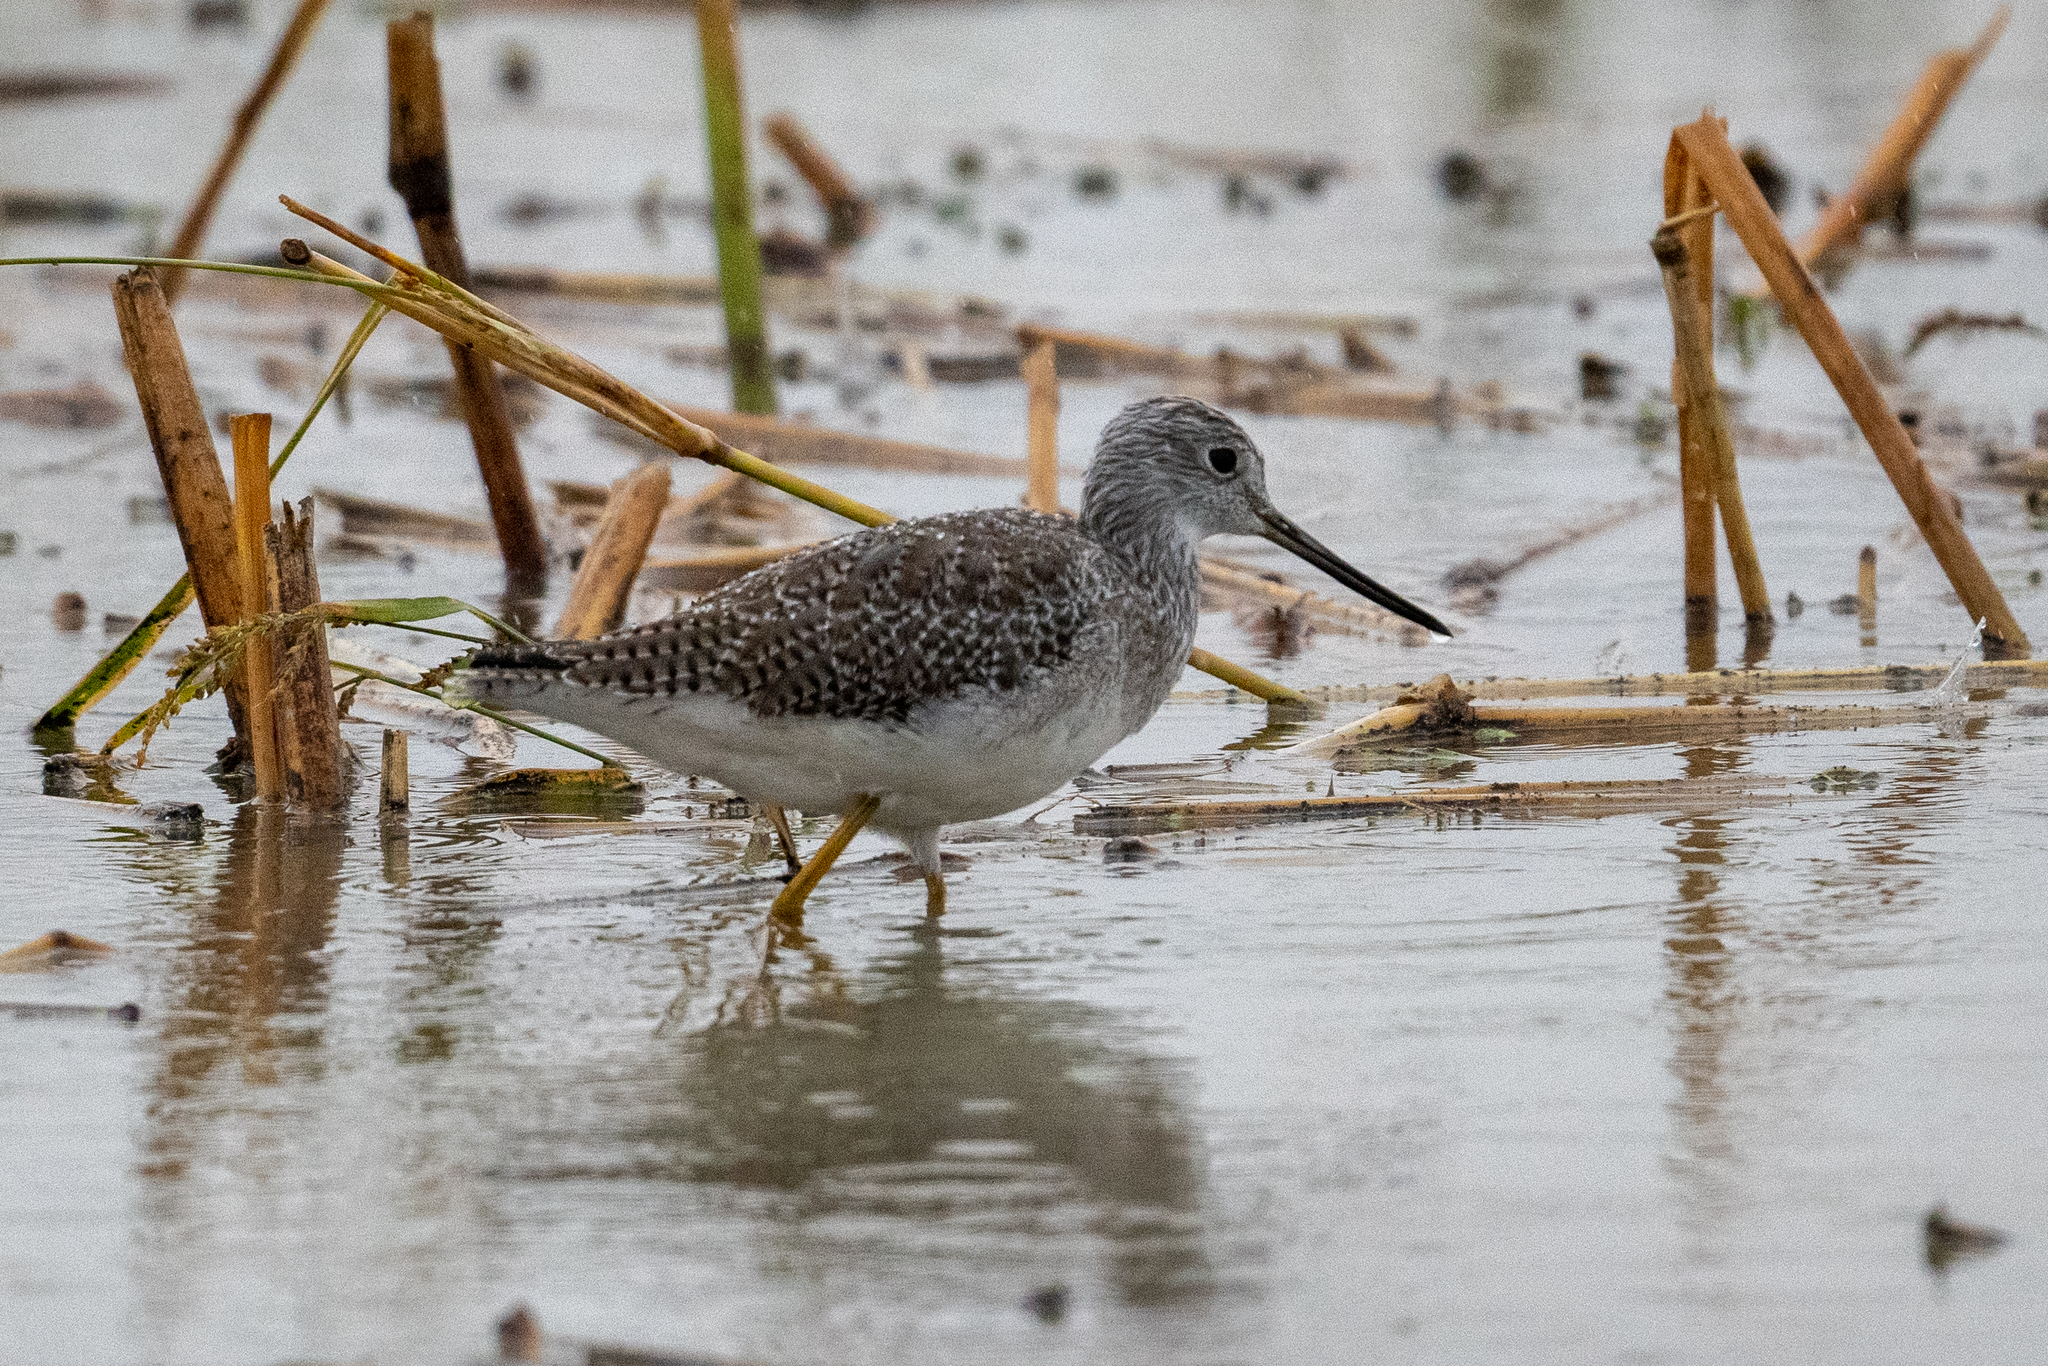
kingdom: Animalia
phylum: Chordata
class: Aves
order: Charadriiformes
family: Scolopacidae
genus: Tringa
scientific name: Tringa melanoleuca
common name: Greater yellowlegs
